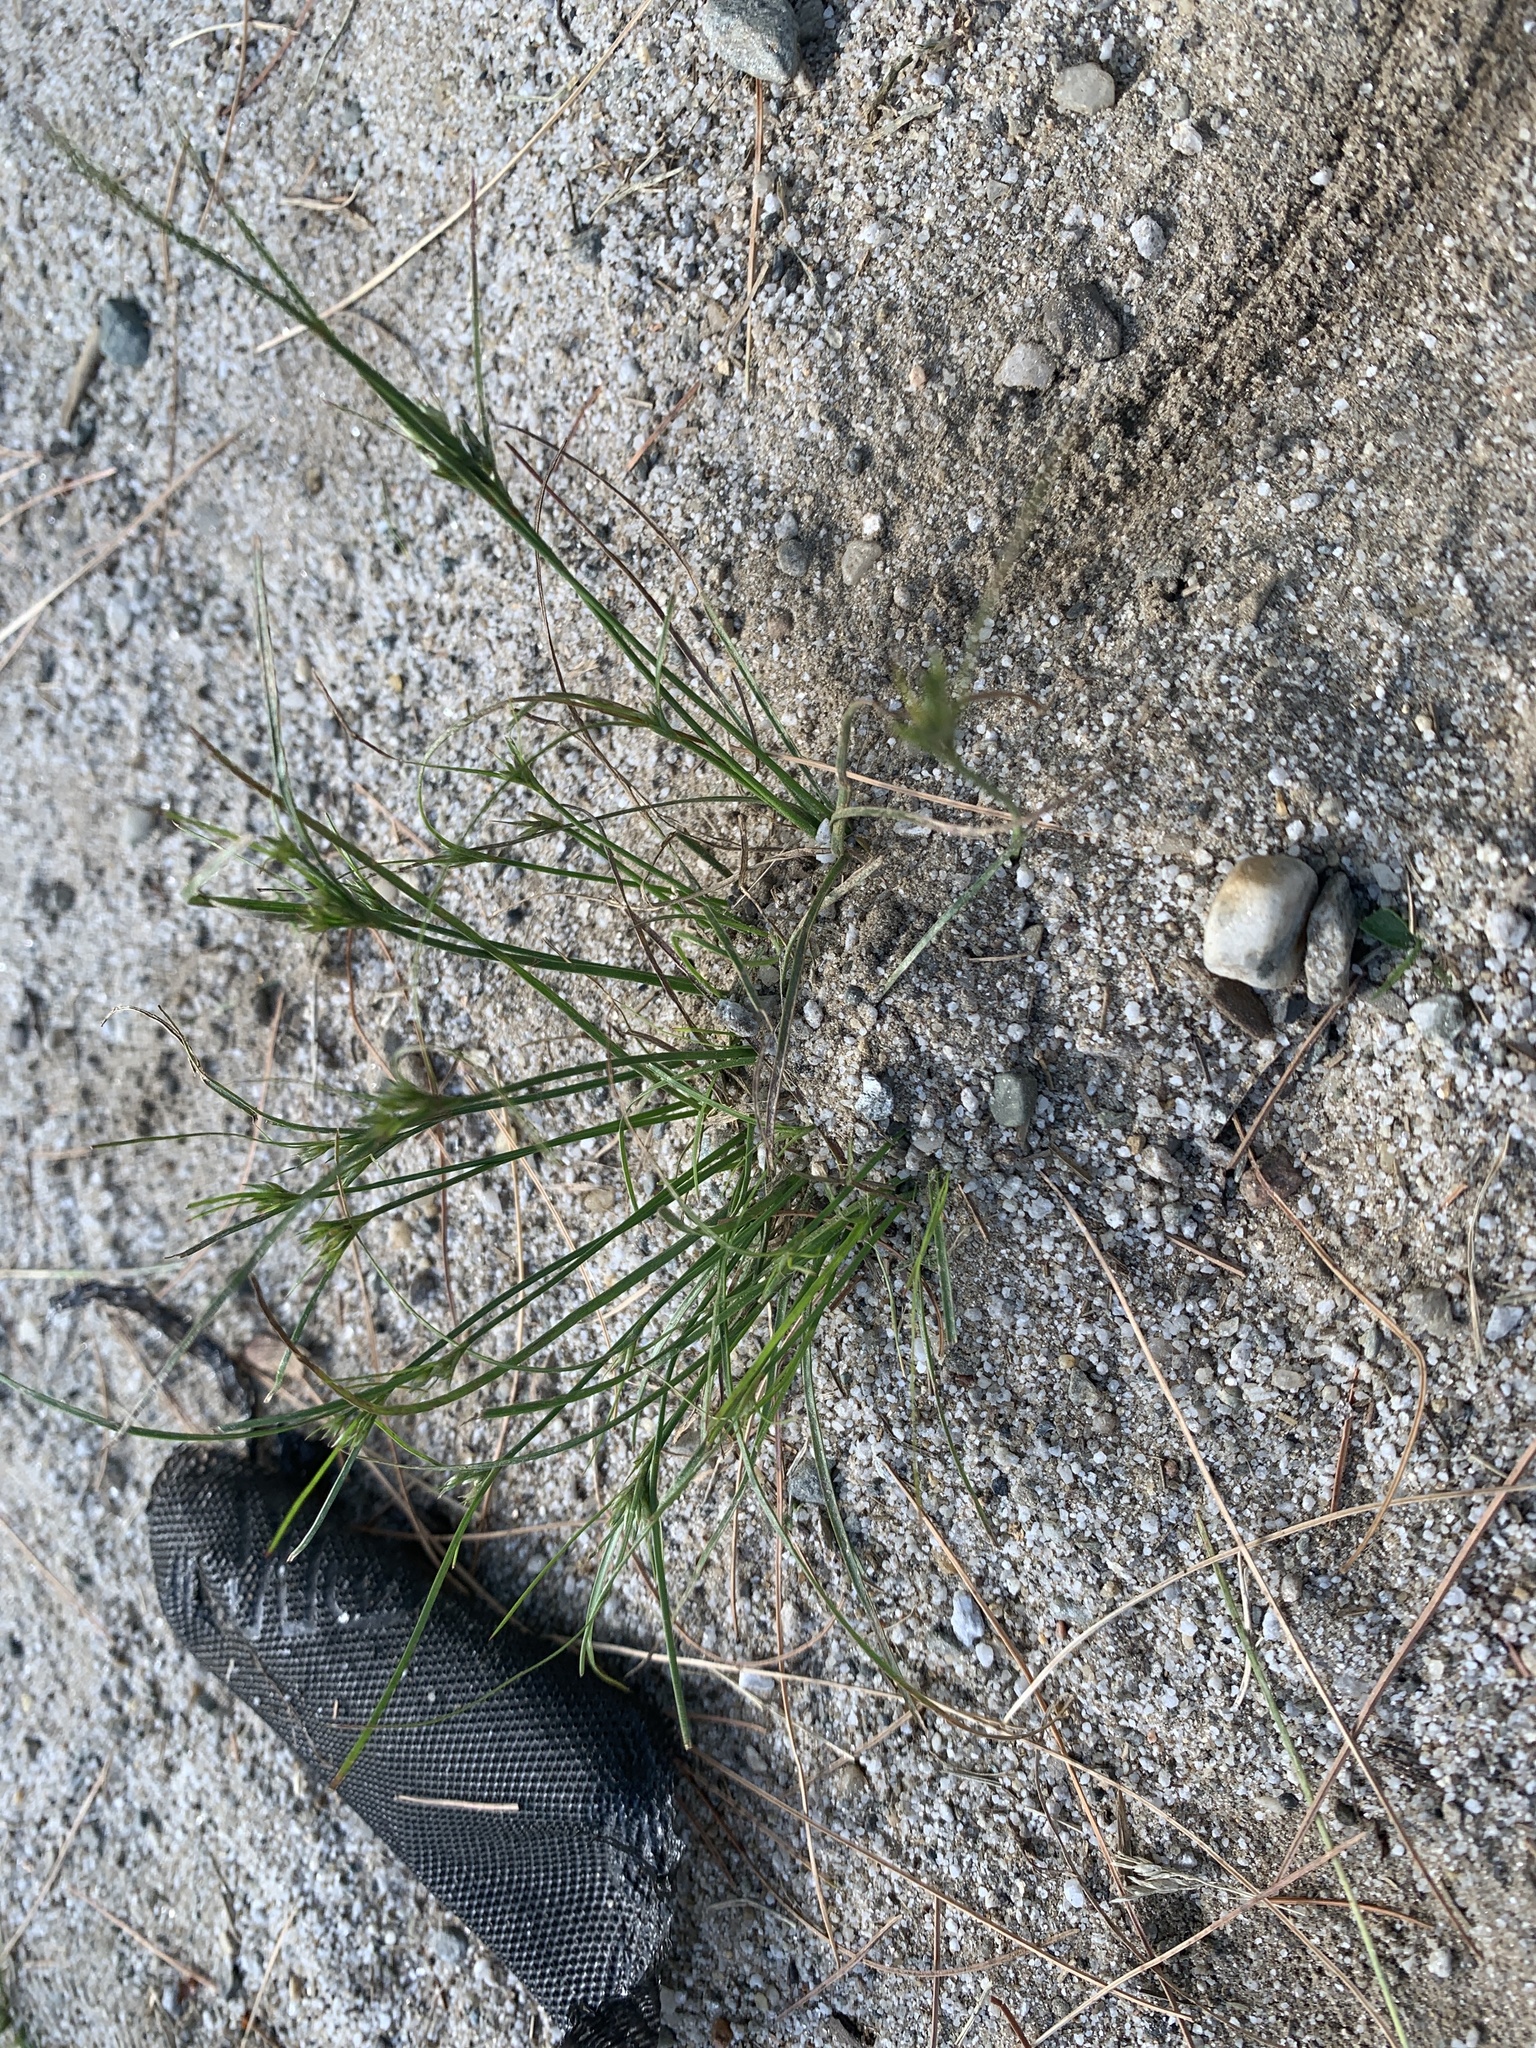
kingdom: Plantae
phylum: Tracheophyta
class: Liliopsida
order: Poales
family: Juncaceae
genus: Juncus
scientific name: Juncus tenuis
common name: Slender rush
